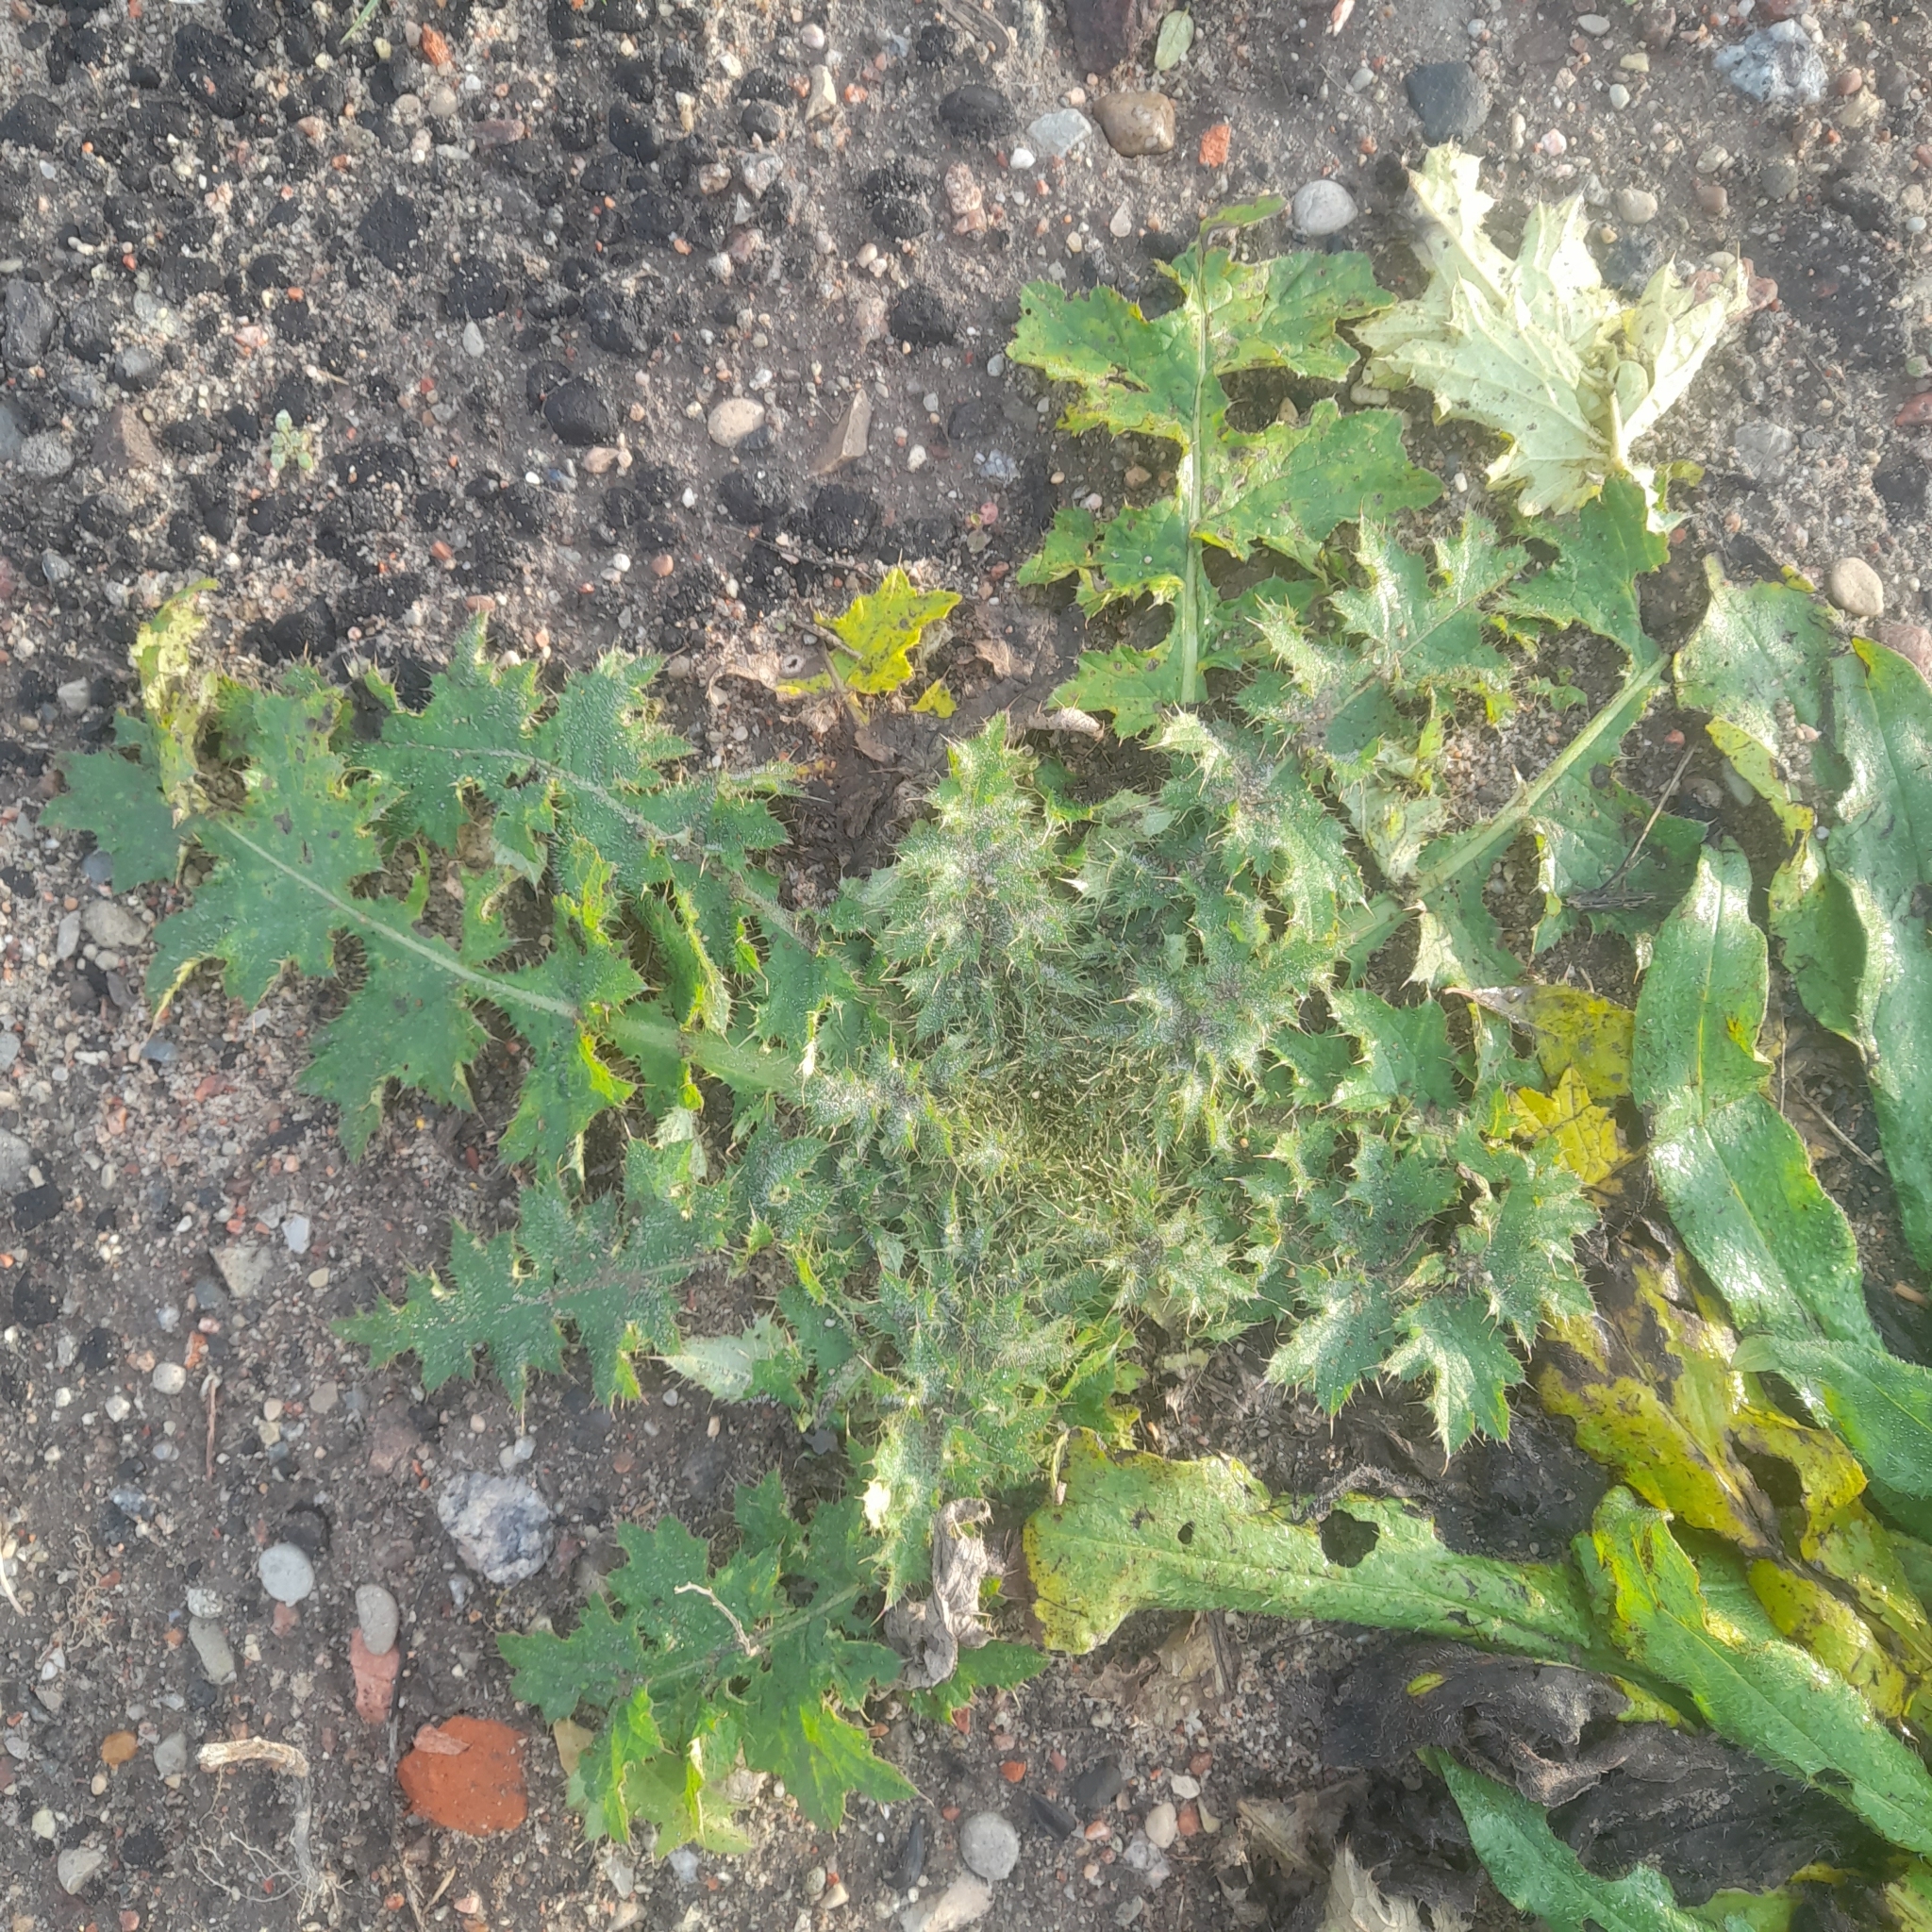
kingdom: Plantae
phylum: Tracheophyta
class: Magnoliopsida
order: Asterales
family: Asteraceae
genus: Carduus
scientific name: Carduus crispus
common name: Welted thistle
